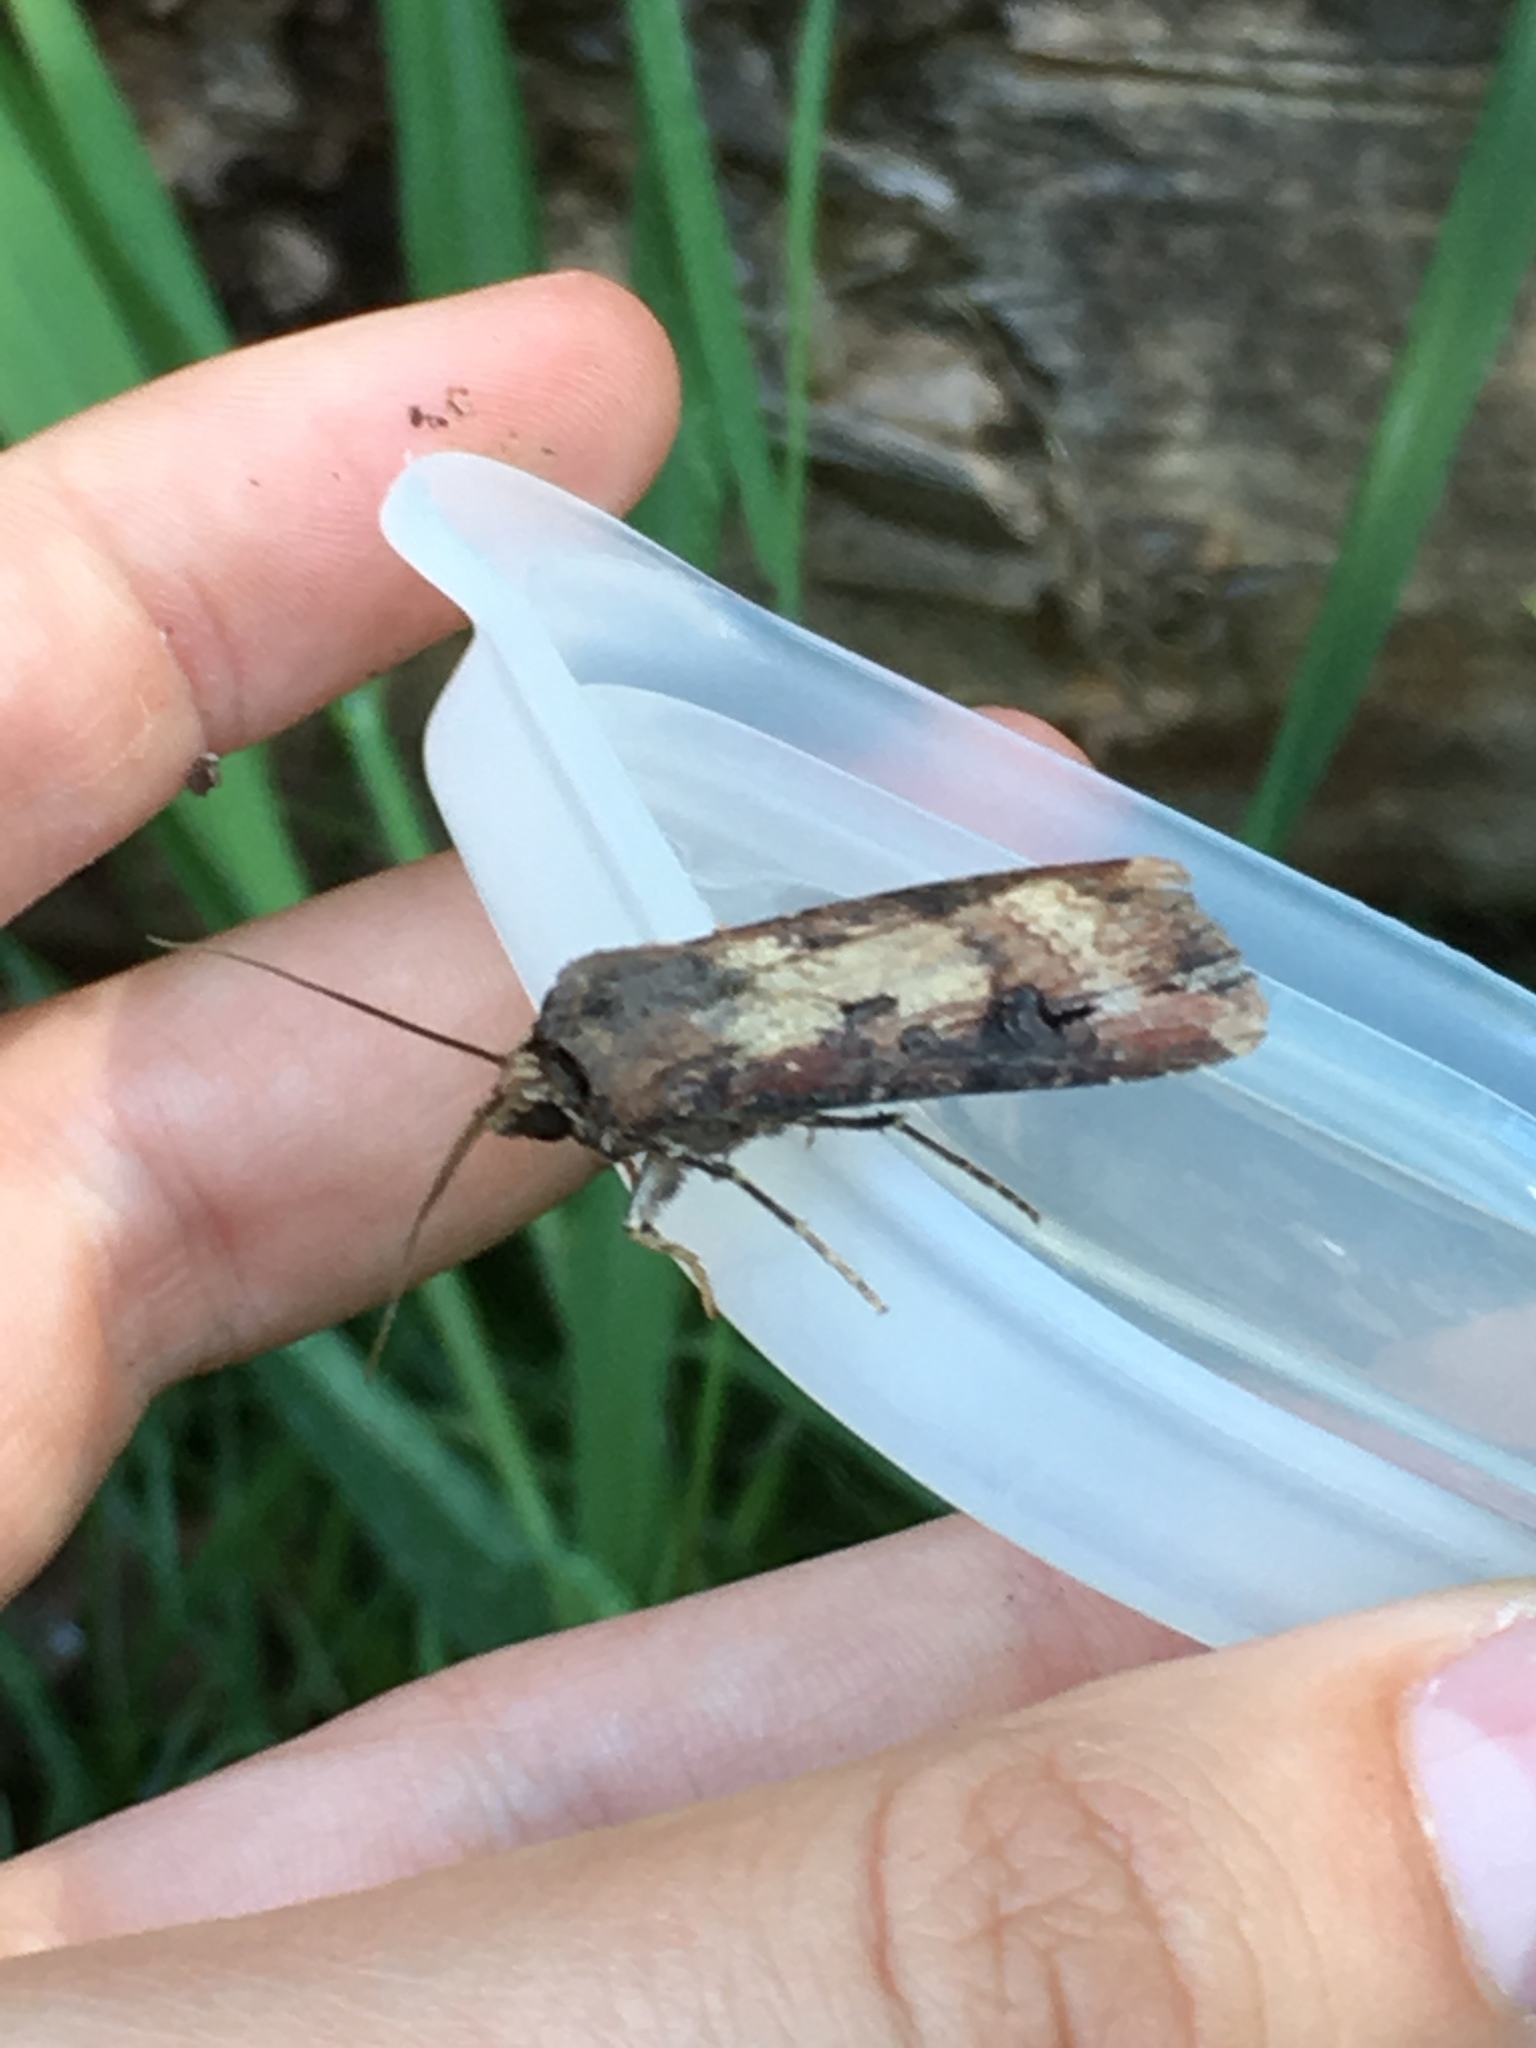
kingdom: Animalia
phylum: Arthropoda
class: Insecta
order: Lepidoptera
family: Noctuidae
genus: Agrotis
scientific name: Agrotis ipsilon
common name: Dark sword-grass
